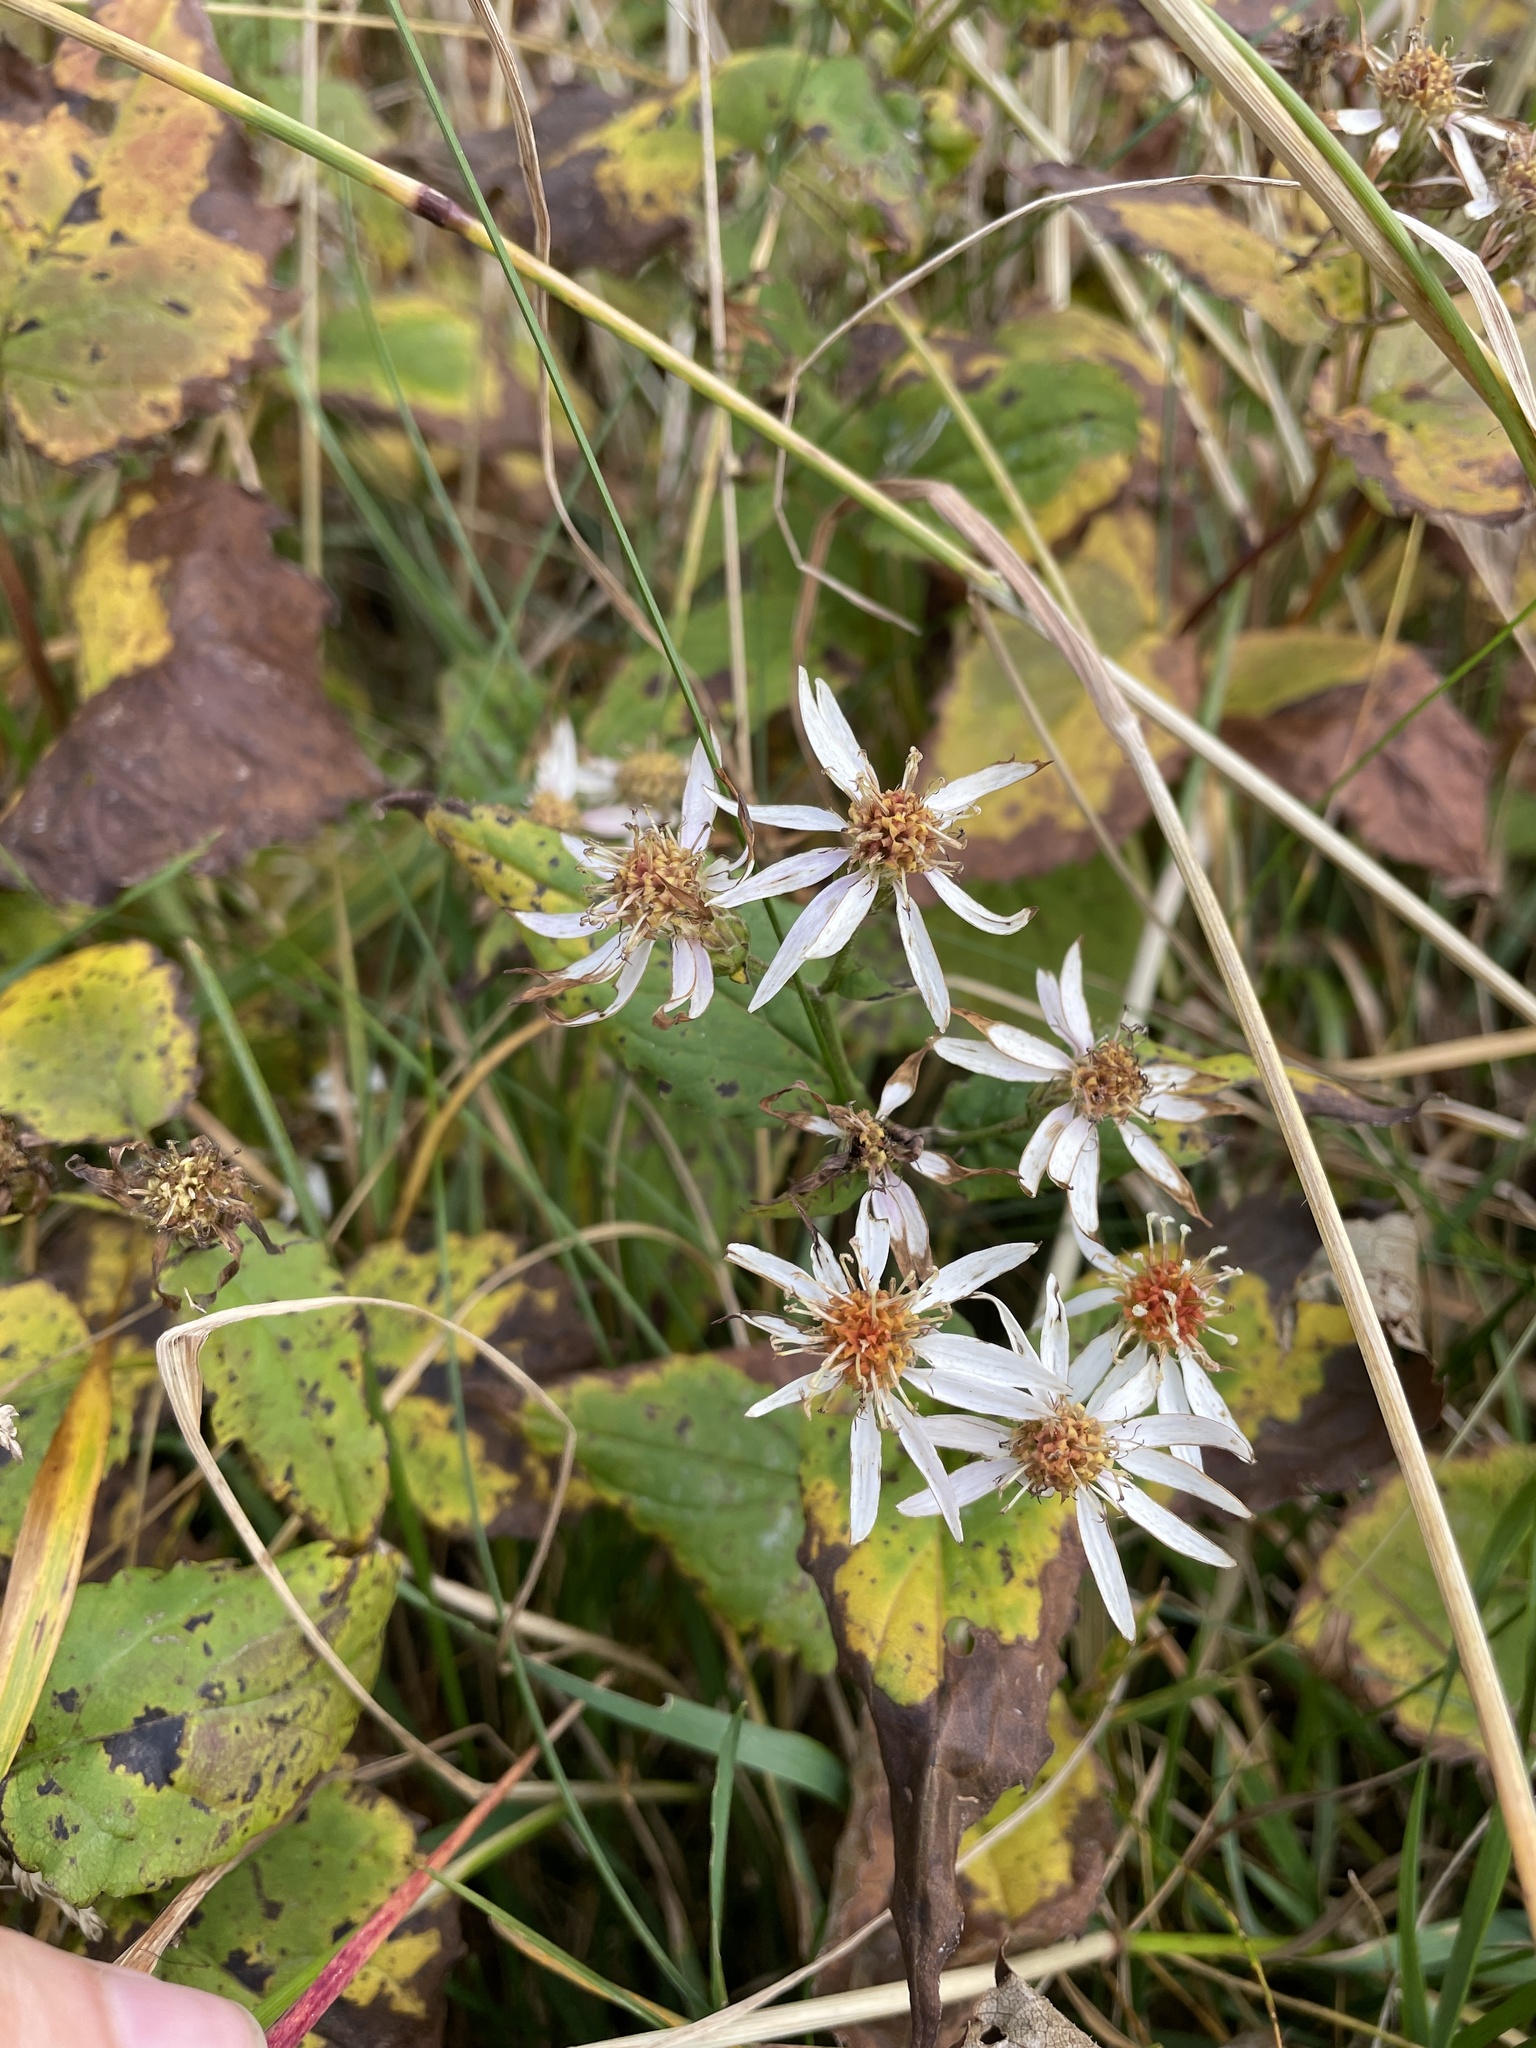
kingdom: Plantae
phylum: Tracheophyta
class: Magnoliopsida
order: Asterales
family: Asteraceae
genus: Eurybia
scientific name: Eurybia chlorolepis
